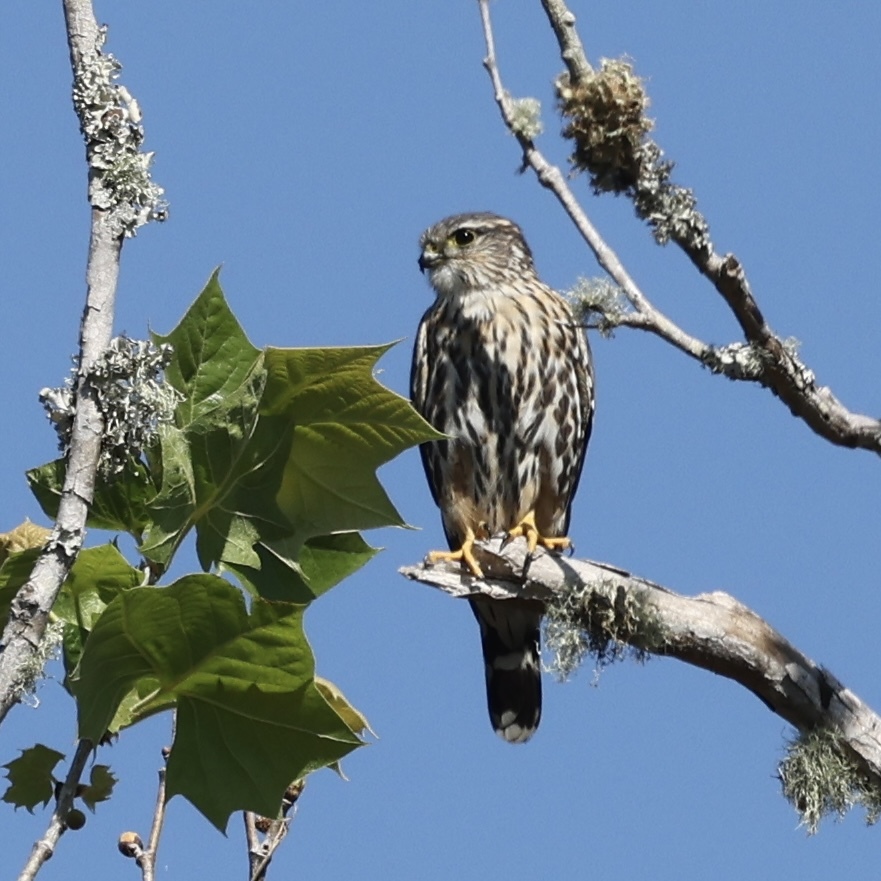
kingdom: Animalia
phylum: Chordata
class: Aves
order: Falconiformes
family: Falconidae
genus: Falco
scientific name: Falco columbarius
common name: Merlin
